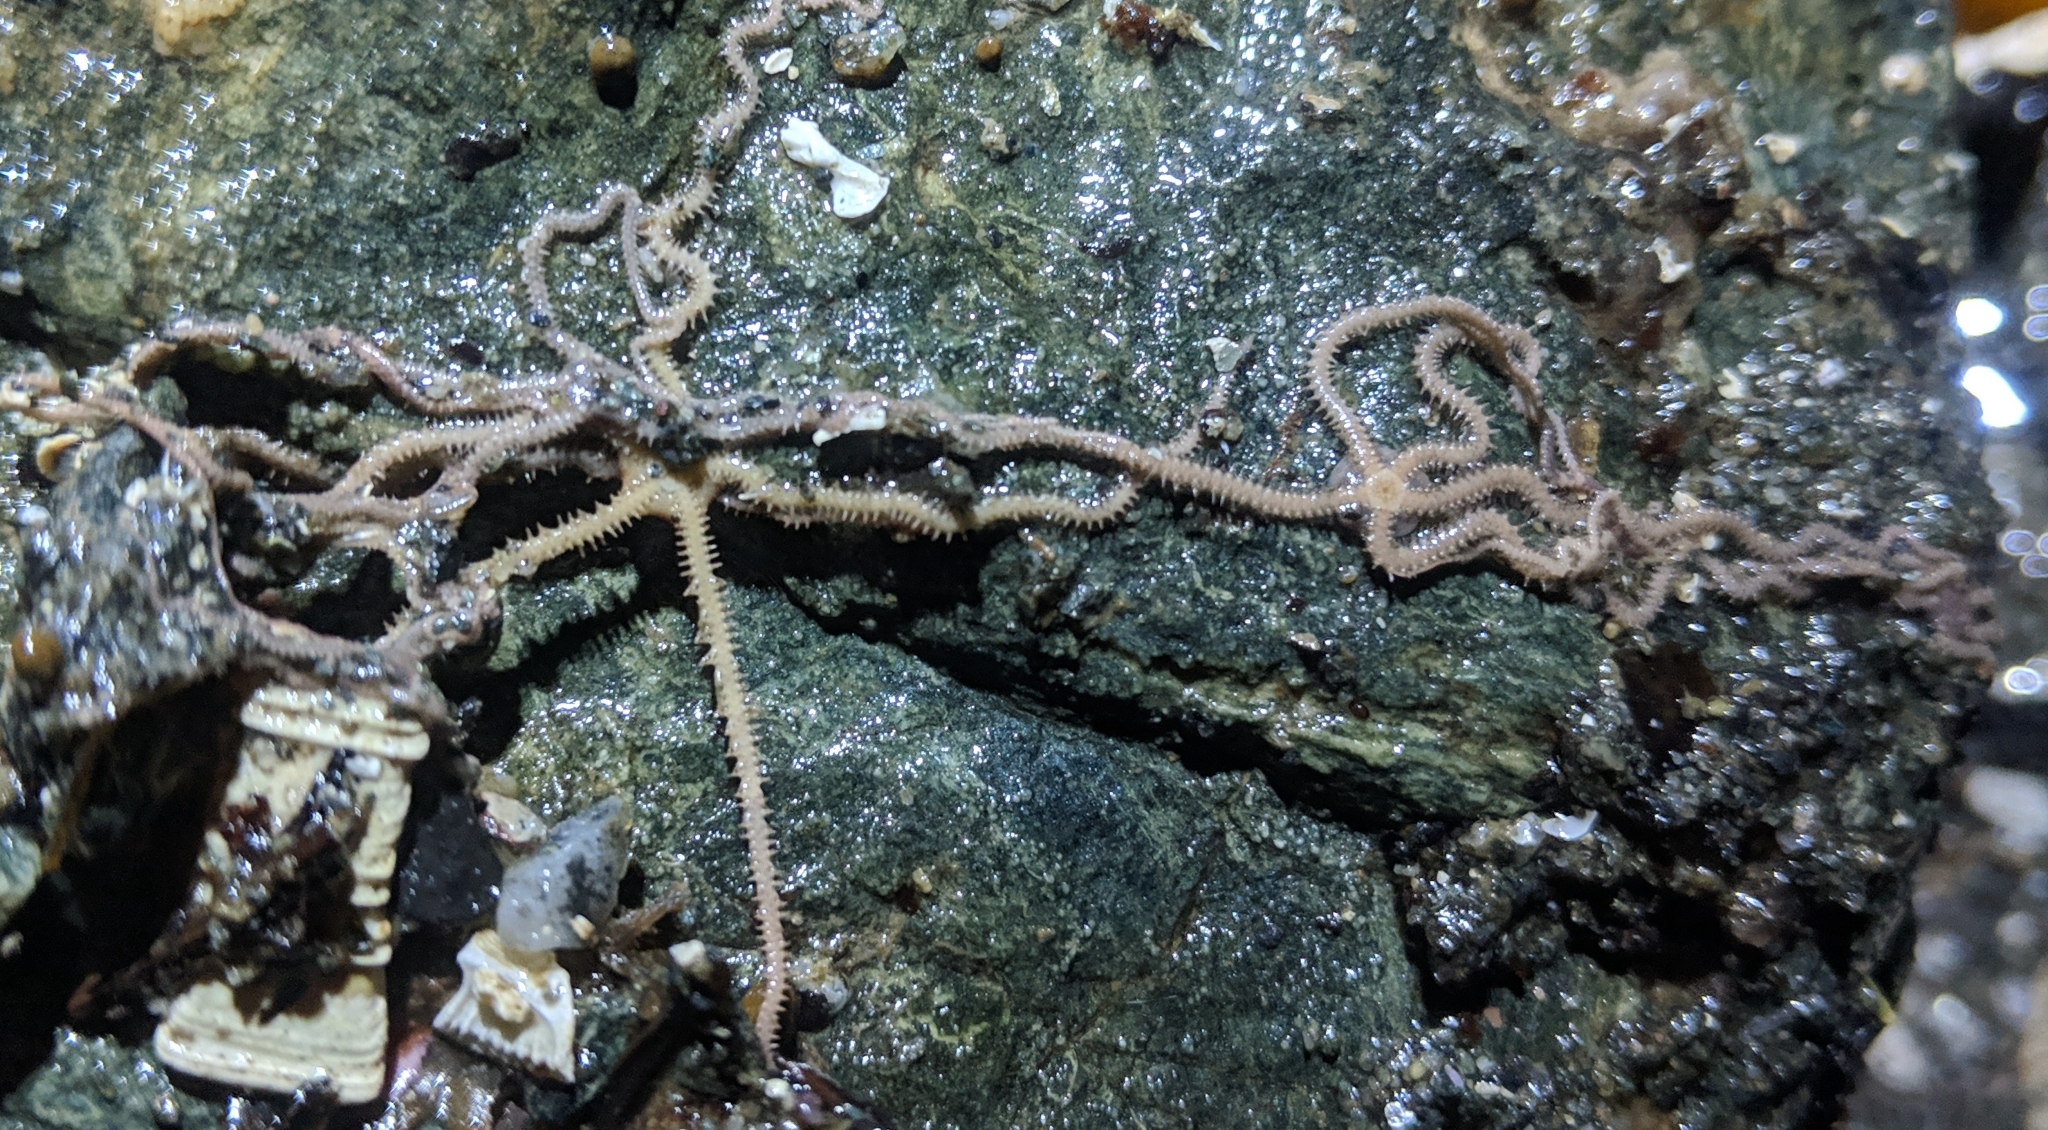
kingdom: Animalia
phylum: Echinodermata
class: Ophiuroidea
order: Amphilepidida
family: Amphiuridae
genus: Amphiodia
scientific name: Amphiodia occidentalis
